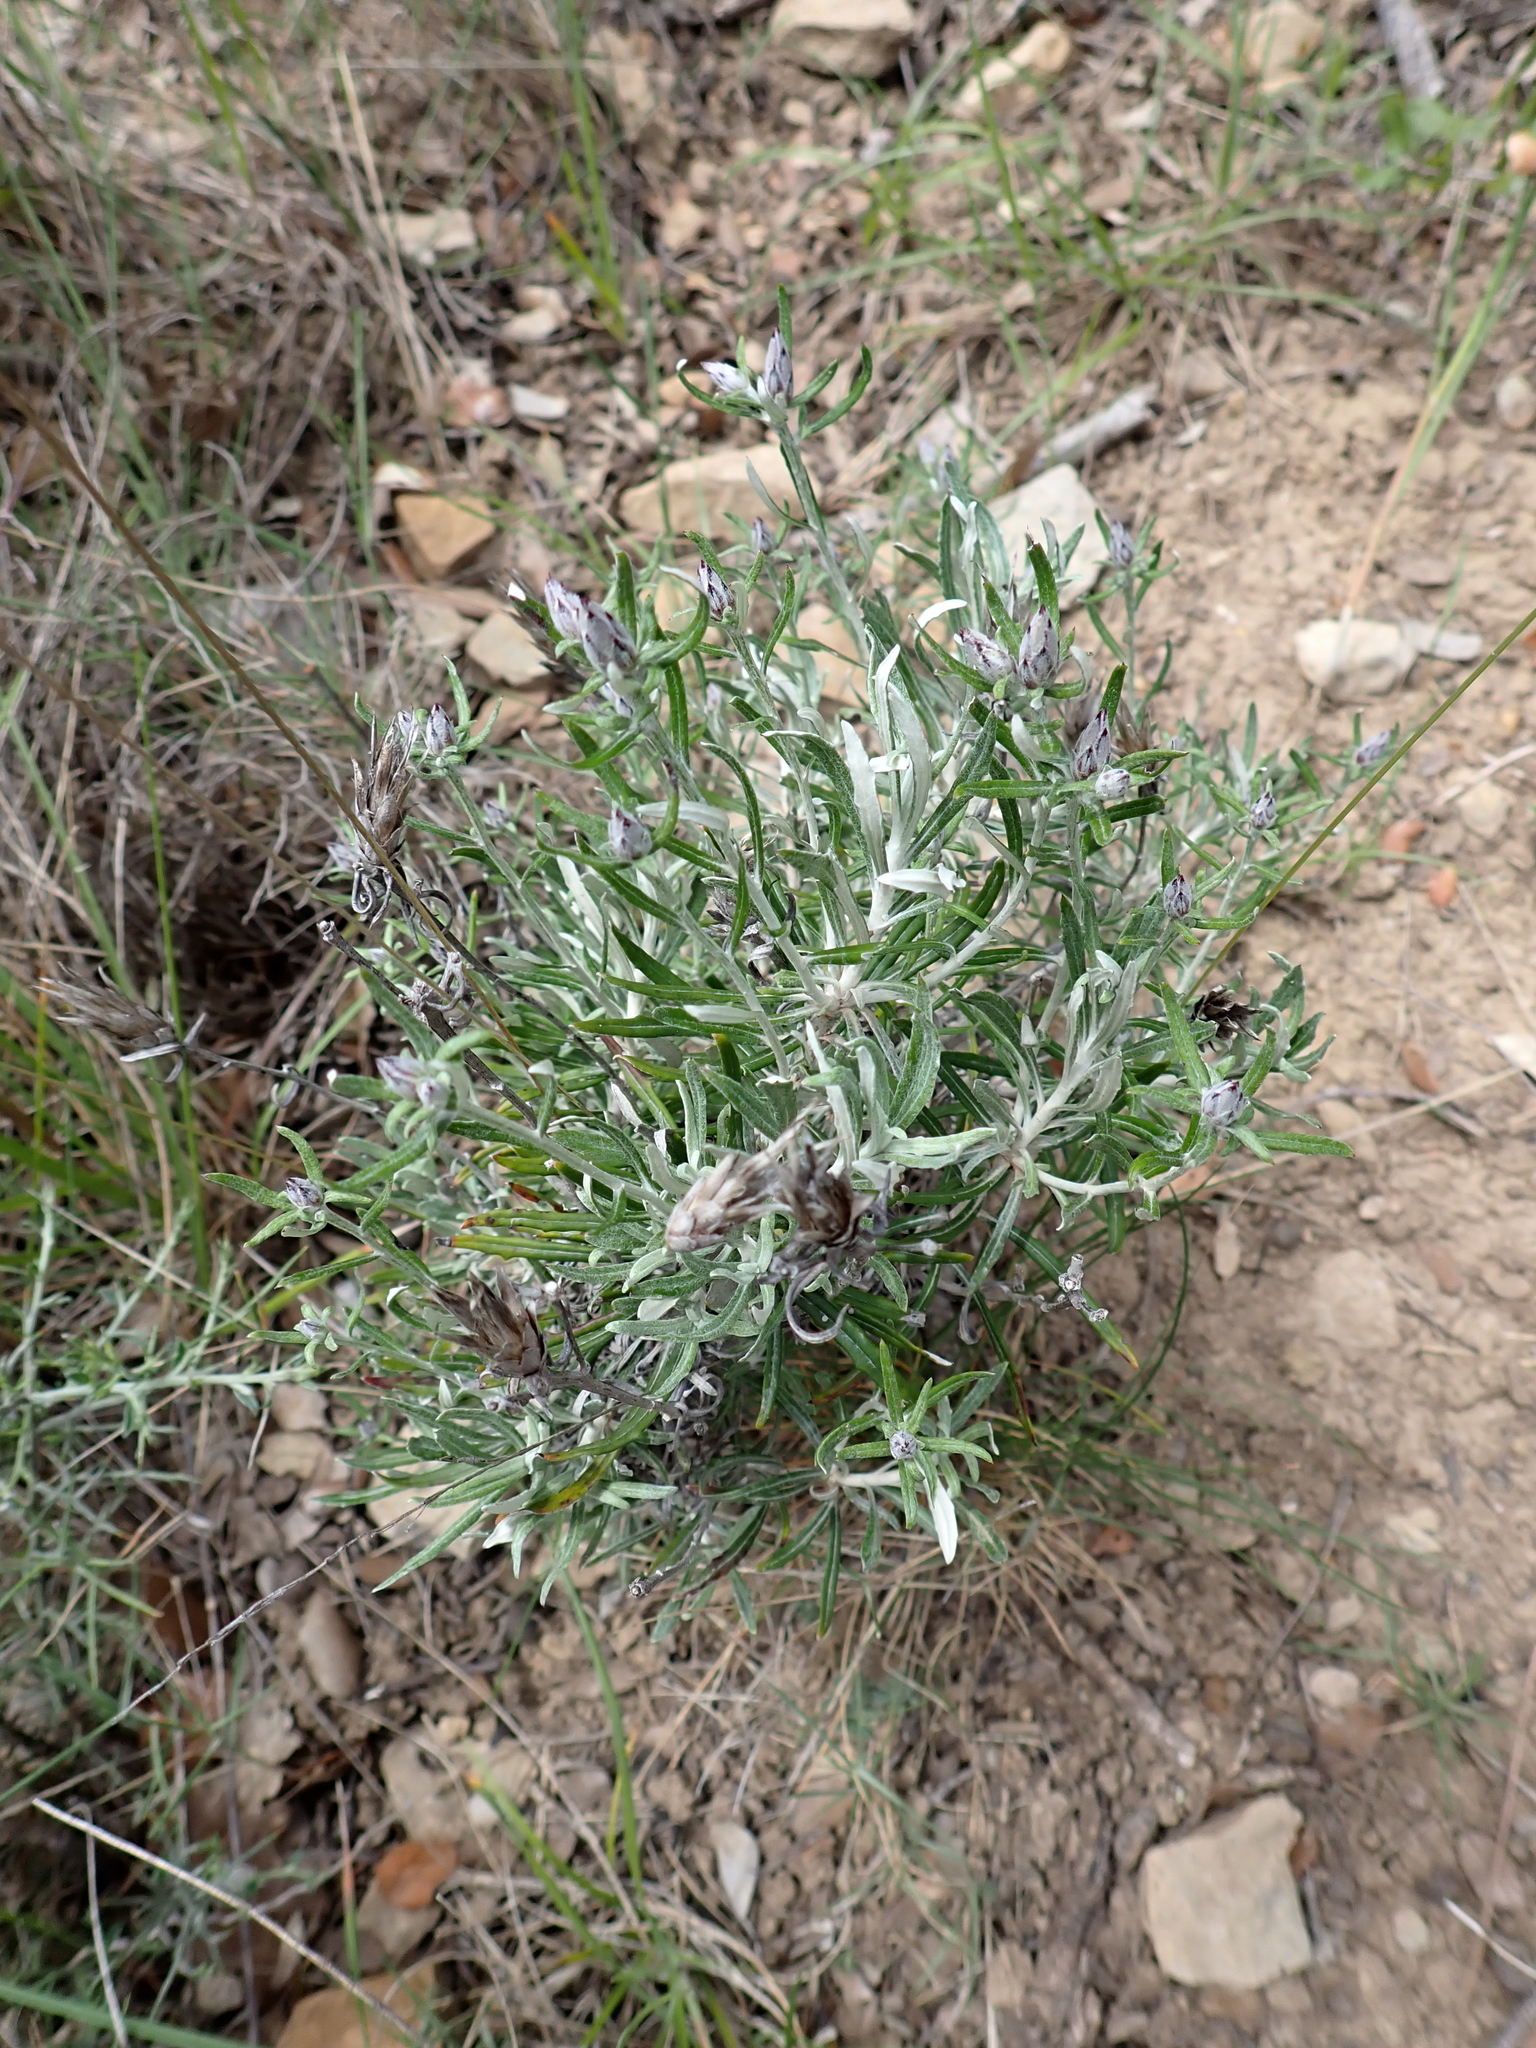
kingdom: Plantae
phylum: Tracheophyta
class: Magnoliopsida
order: Asterales
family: Asteraceae
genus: Staehelina
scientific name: Staehelina dubia
